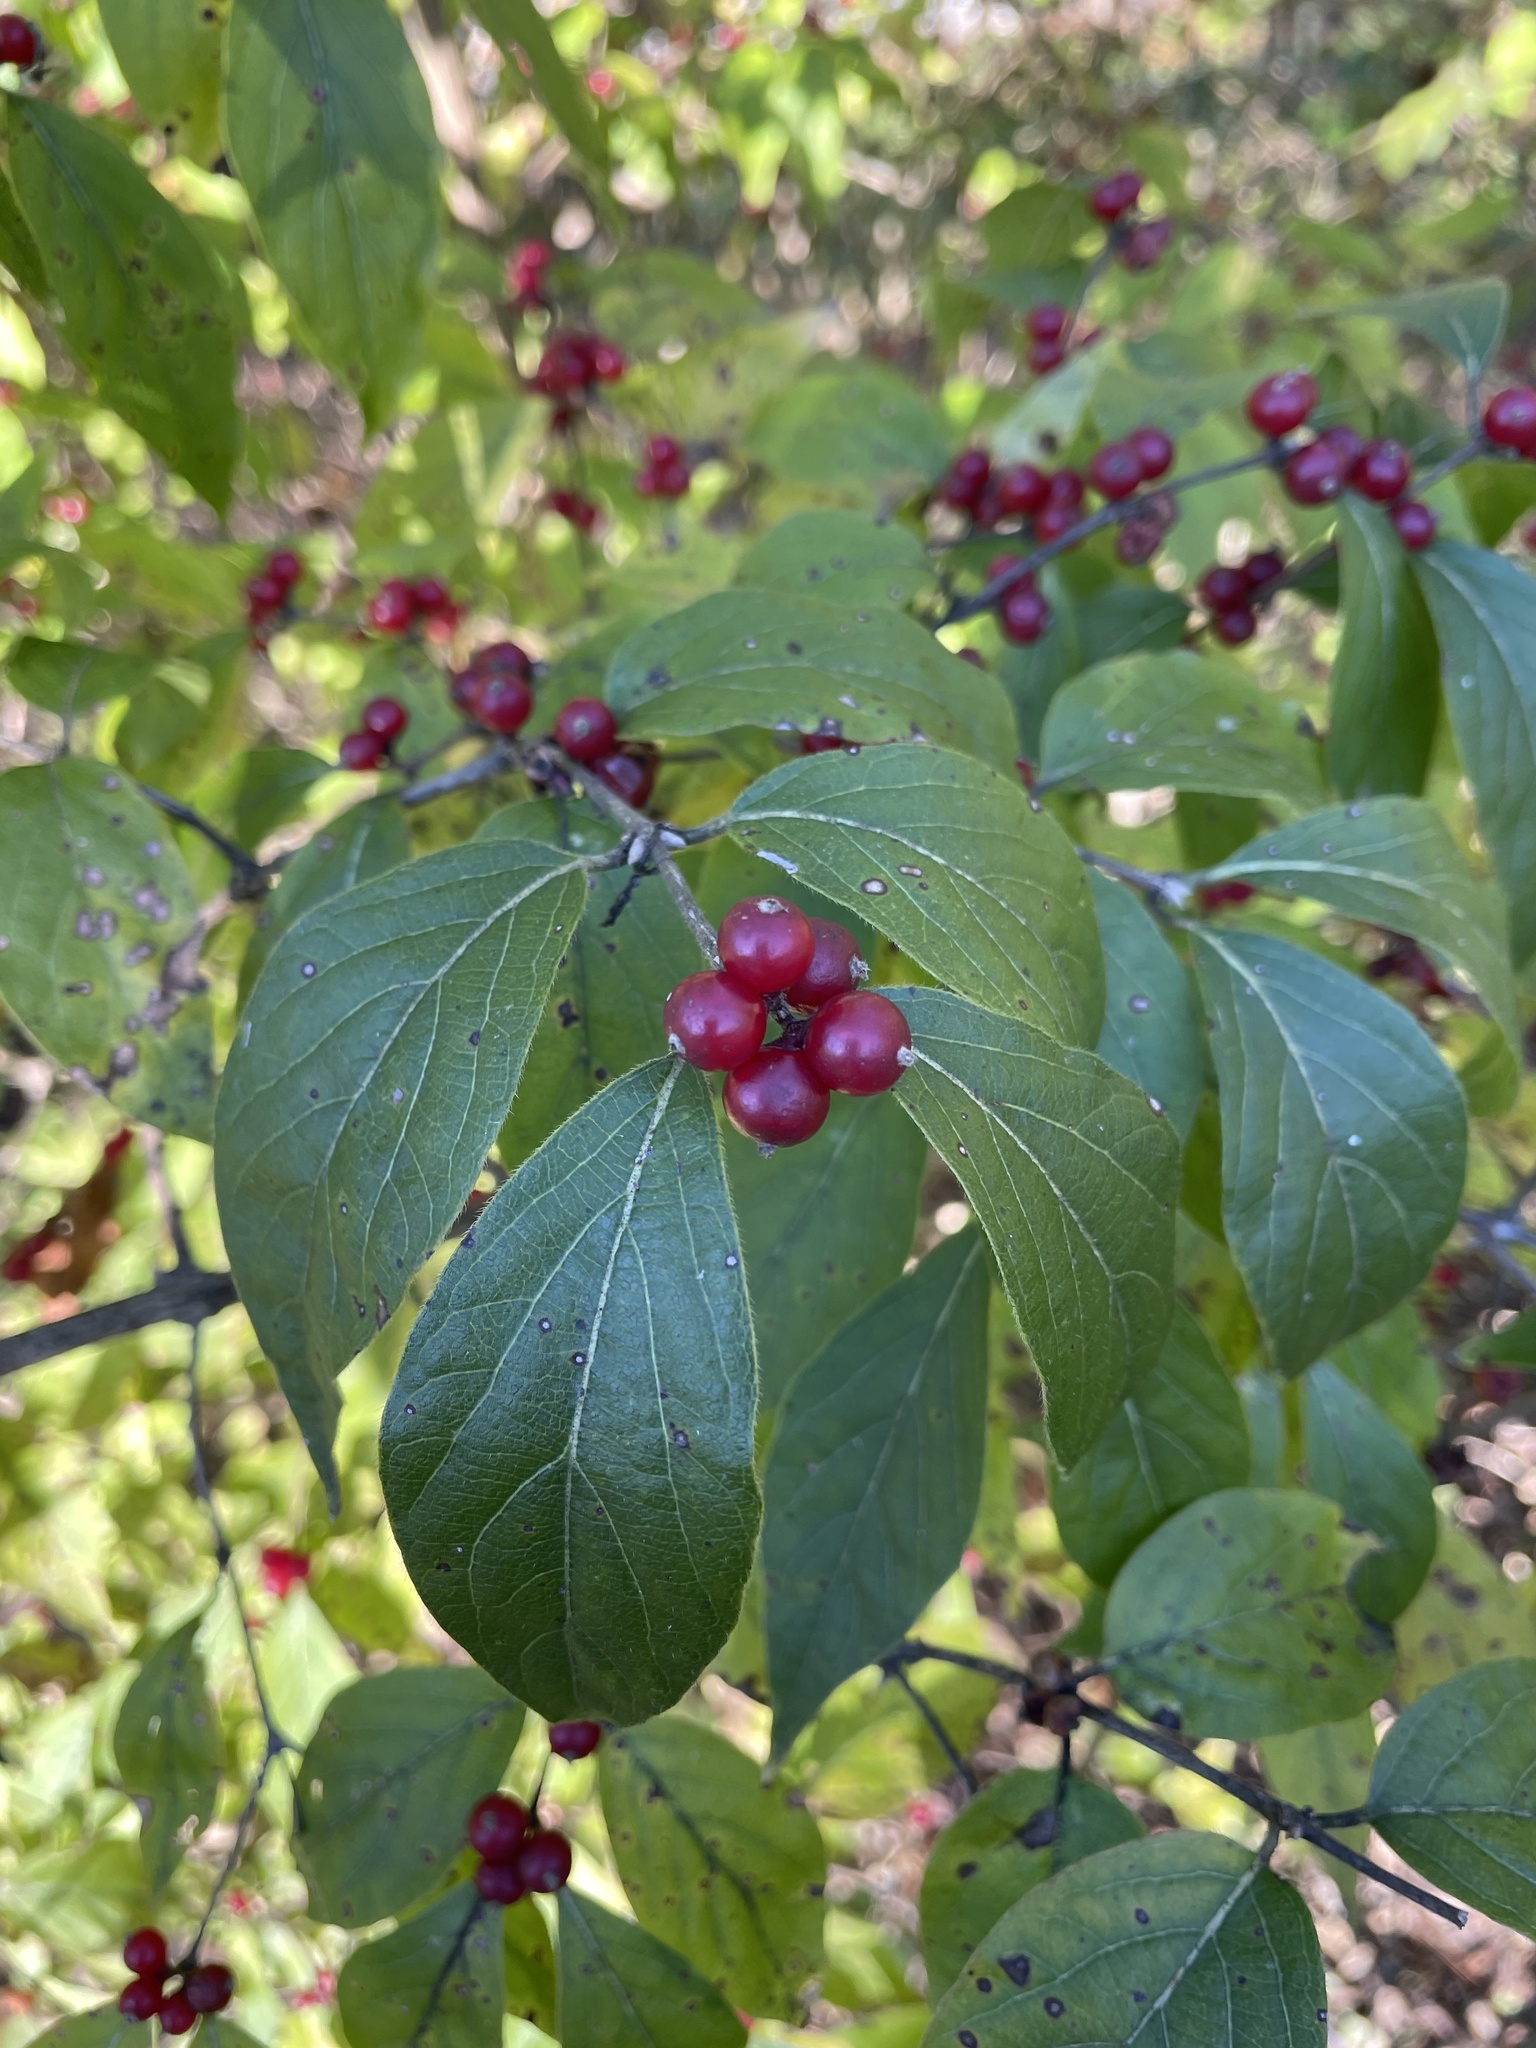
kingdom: Plantae
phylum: Tracheophyta
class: Magnoliopsida
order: Dipsacales
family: Caprifoliaceae
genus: Lonicera
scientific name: Lonicera maackii
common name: Amur honeysuckle
